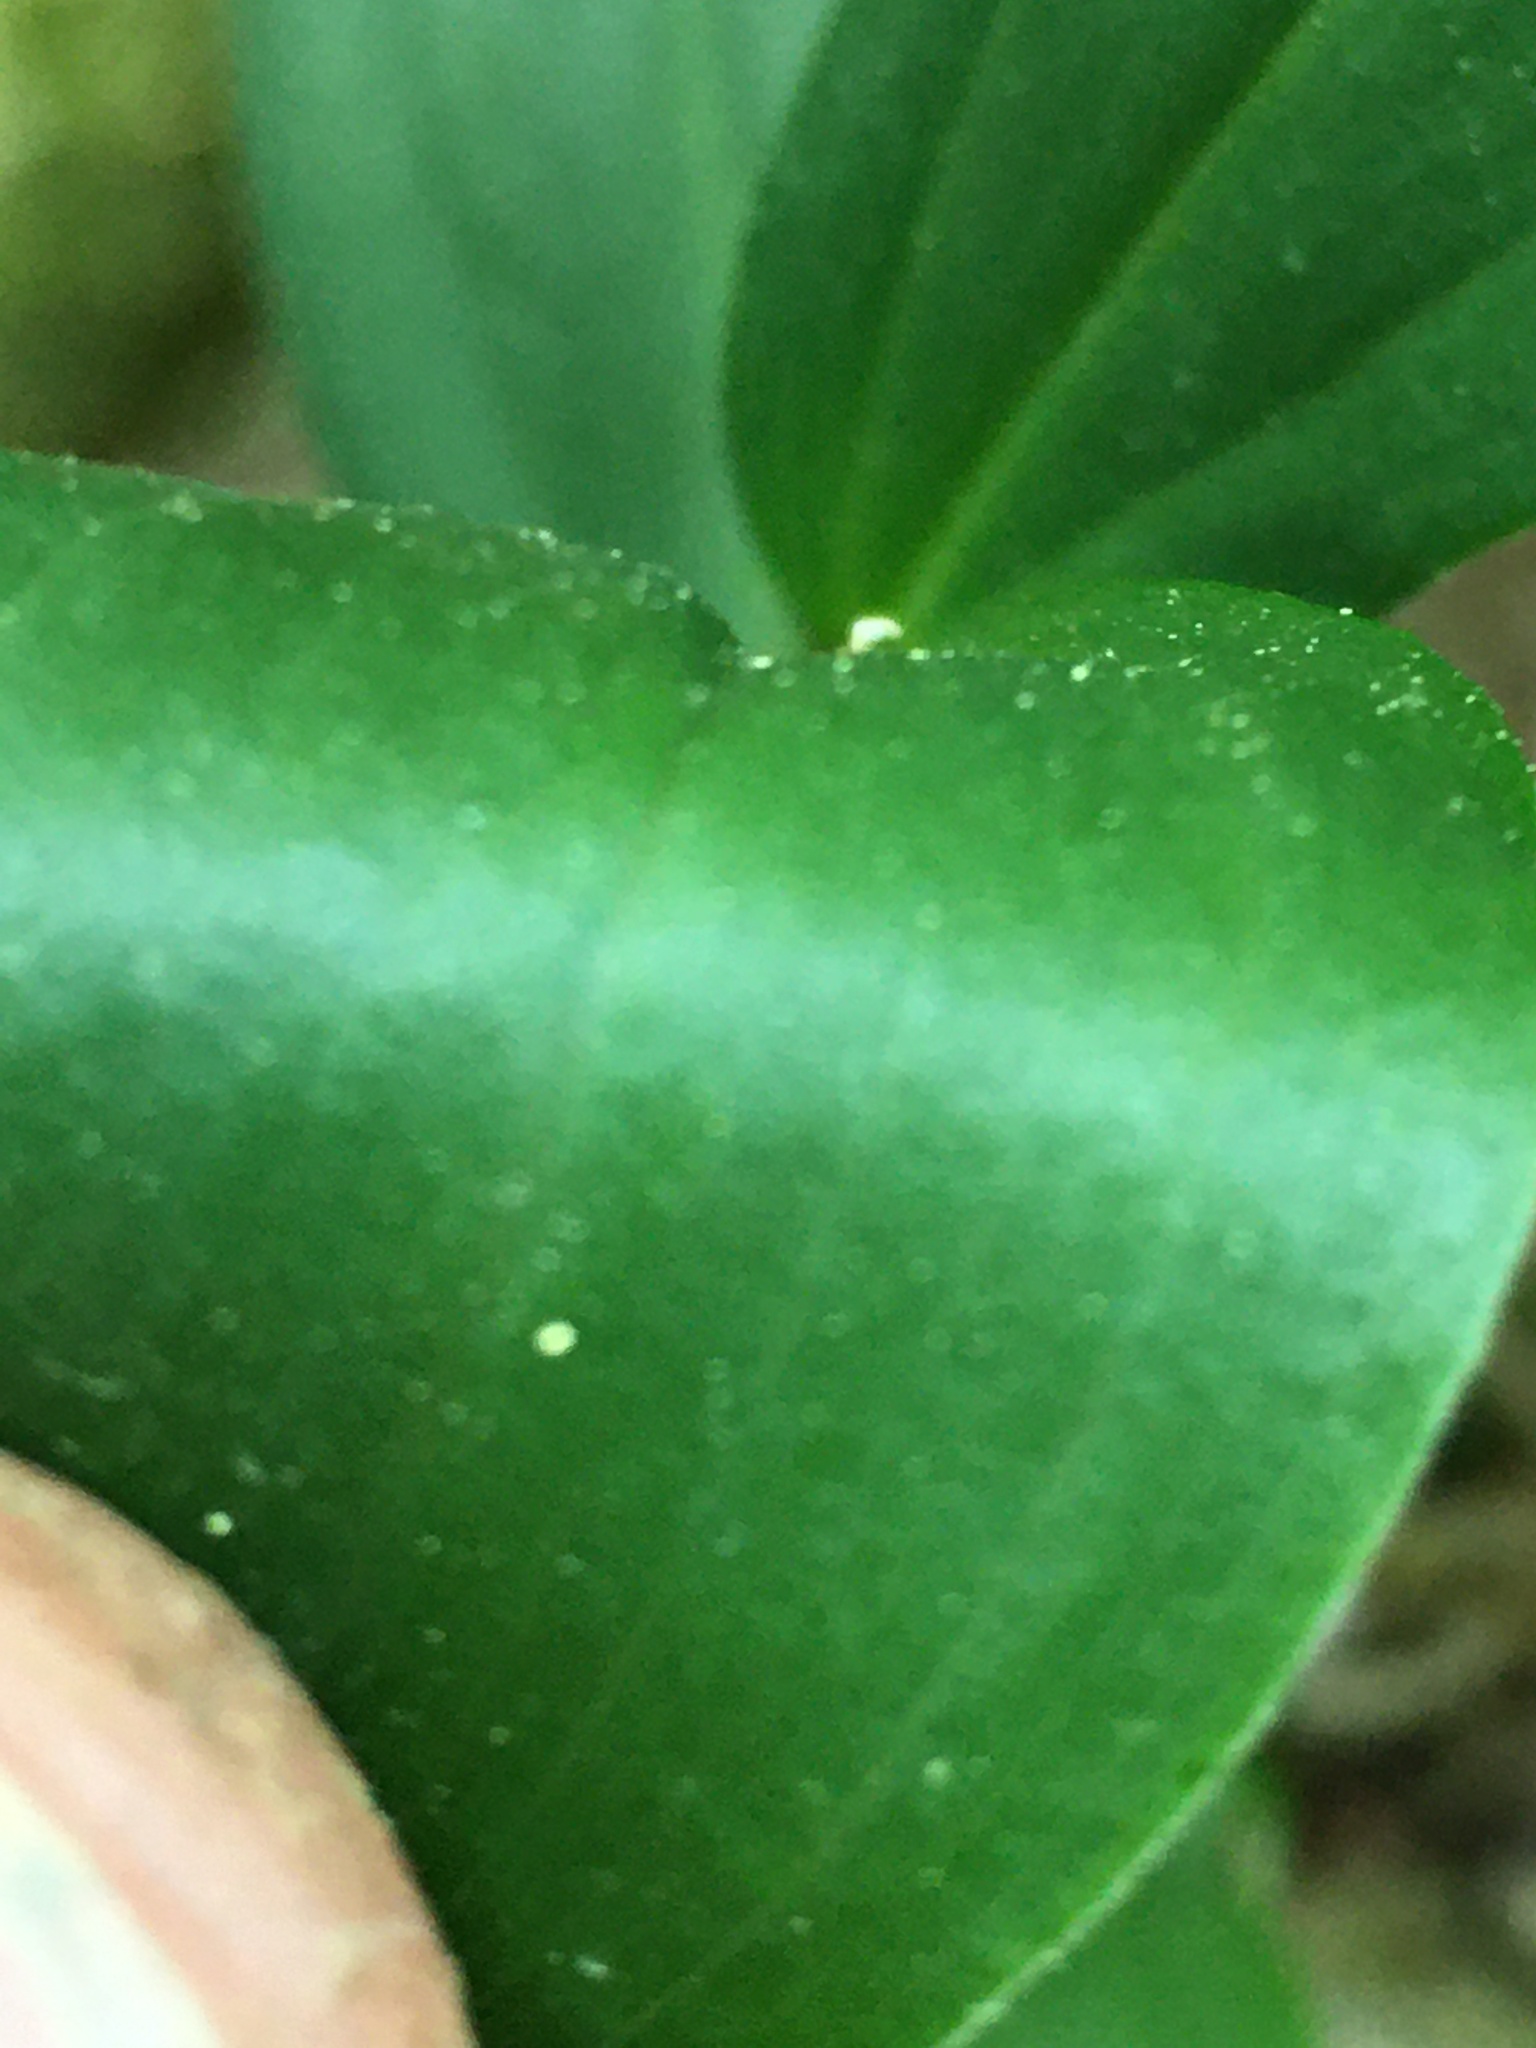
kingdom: Plantae
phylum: Tracheophyta
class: Liliopsida
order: Asparagales
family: Asparagaceae
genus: Maianthemum
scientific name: Maianthemum racemosum
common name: False spikenard
